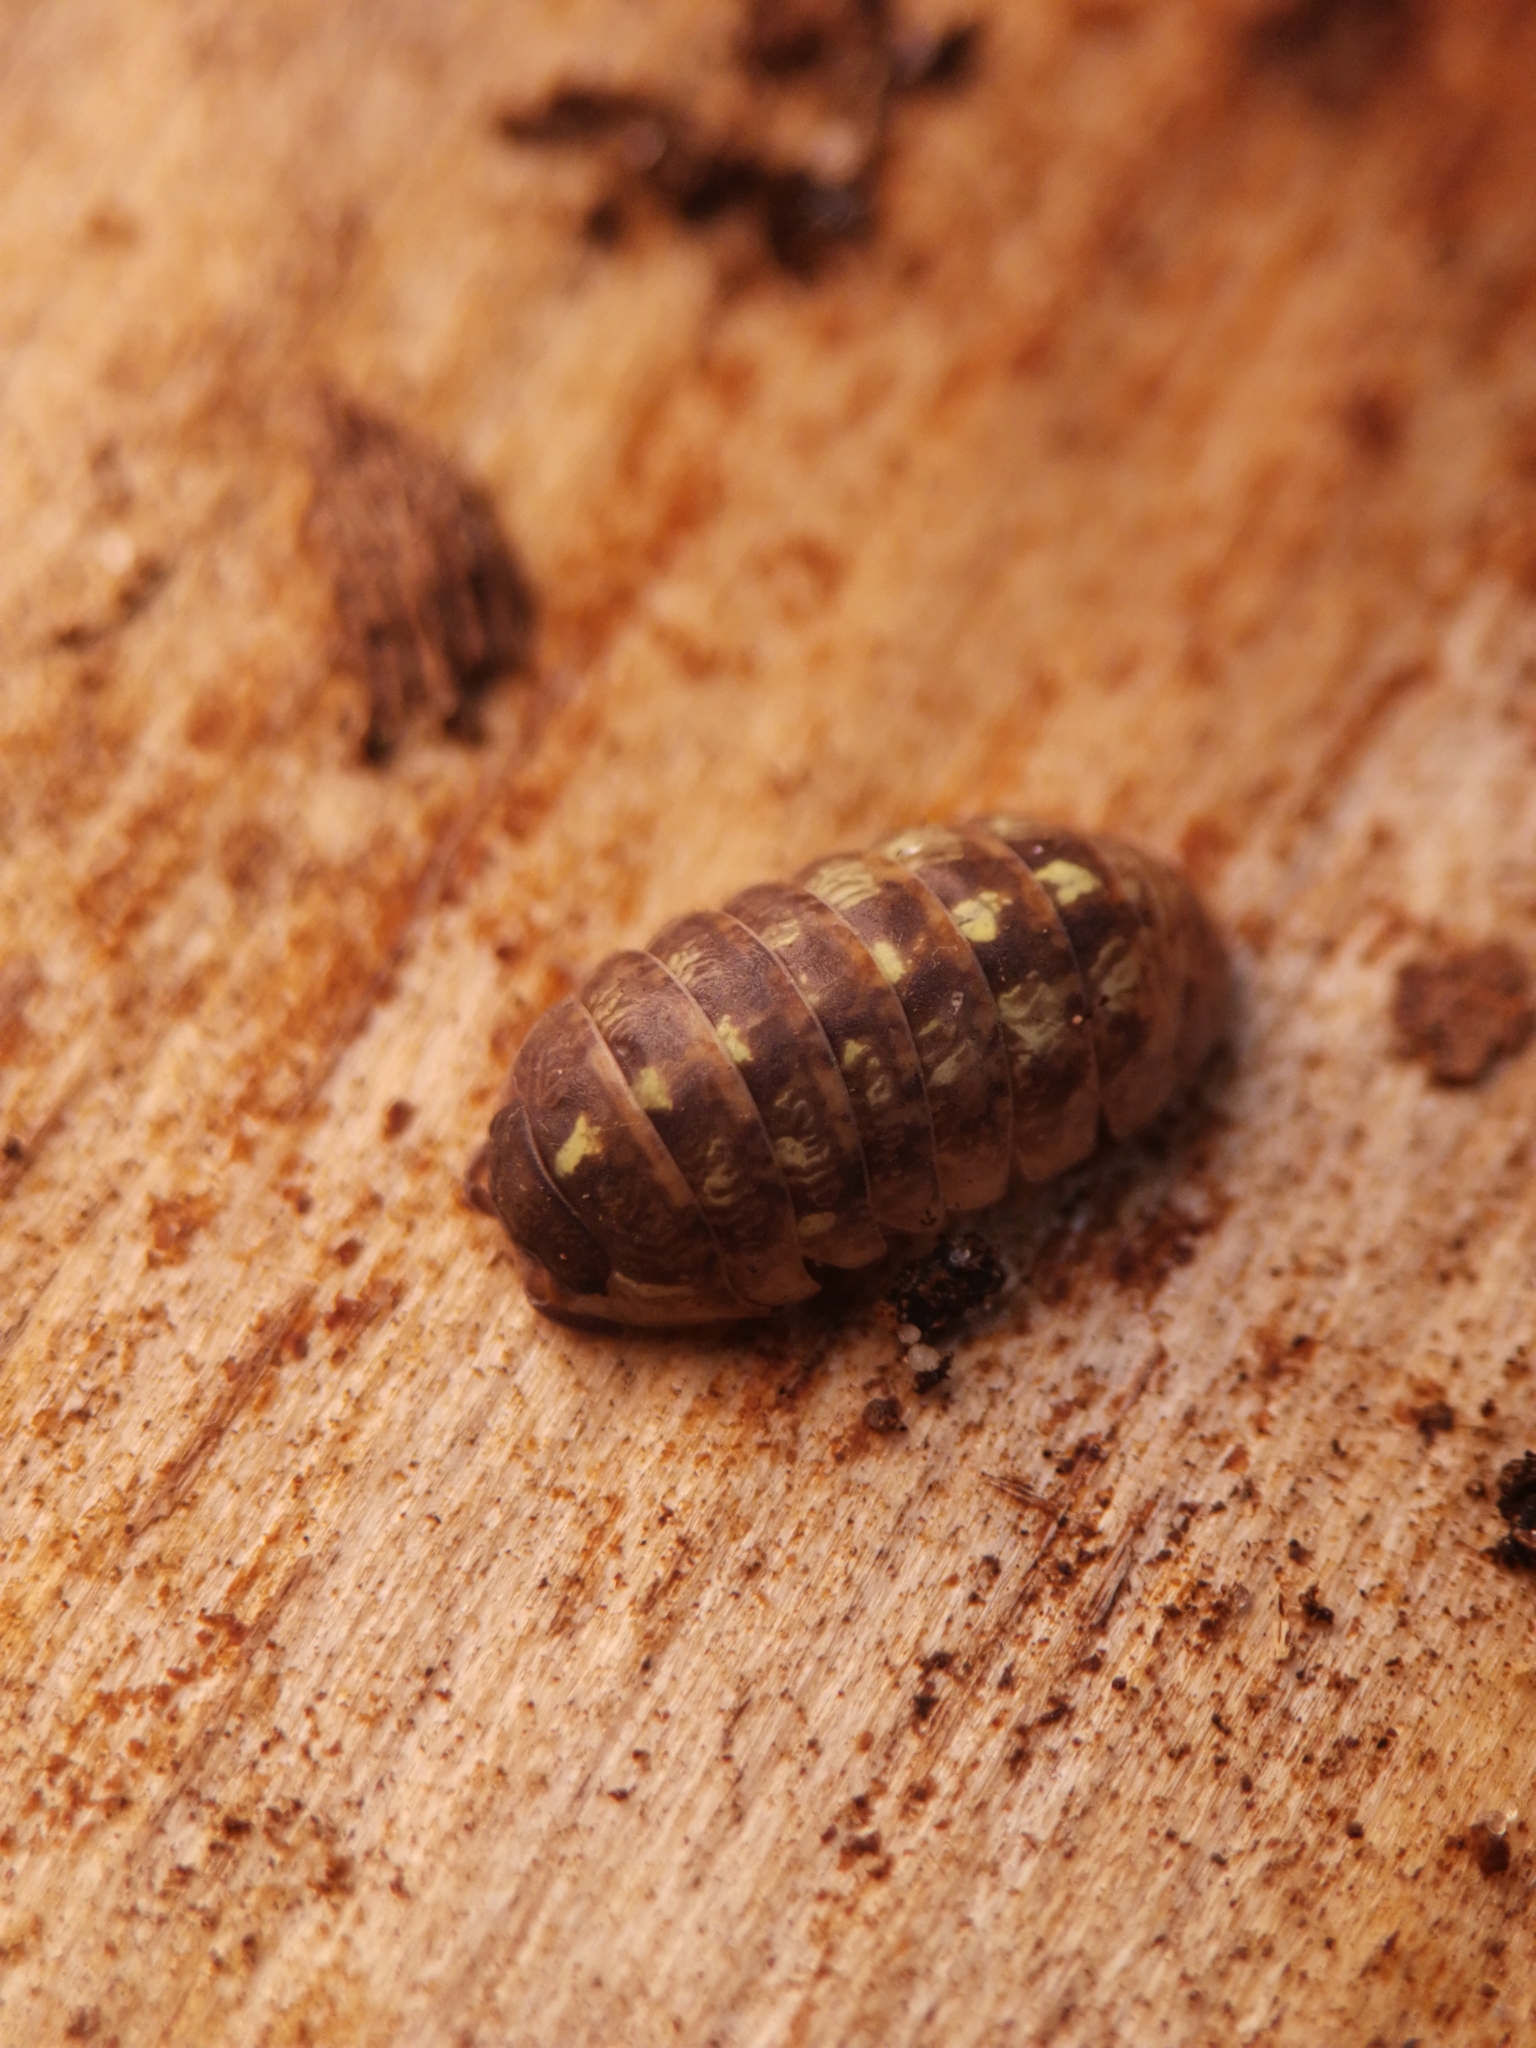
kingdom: Animalia
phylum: Arthropoda
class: Malacostraca
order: Isopoda
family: Armadillidiidae
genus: Armadillidium
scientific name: Armadillidium vulgare
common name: Common pill woodlouse
